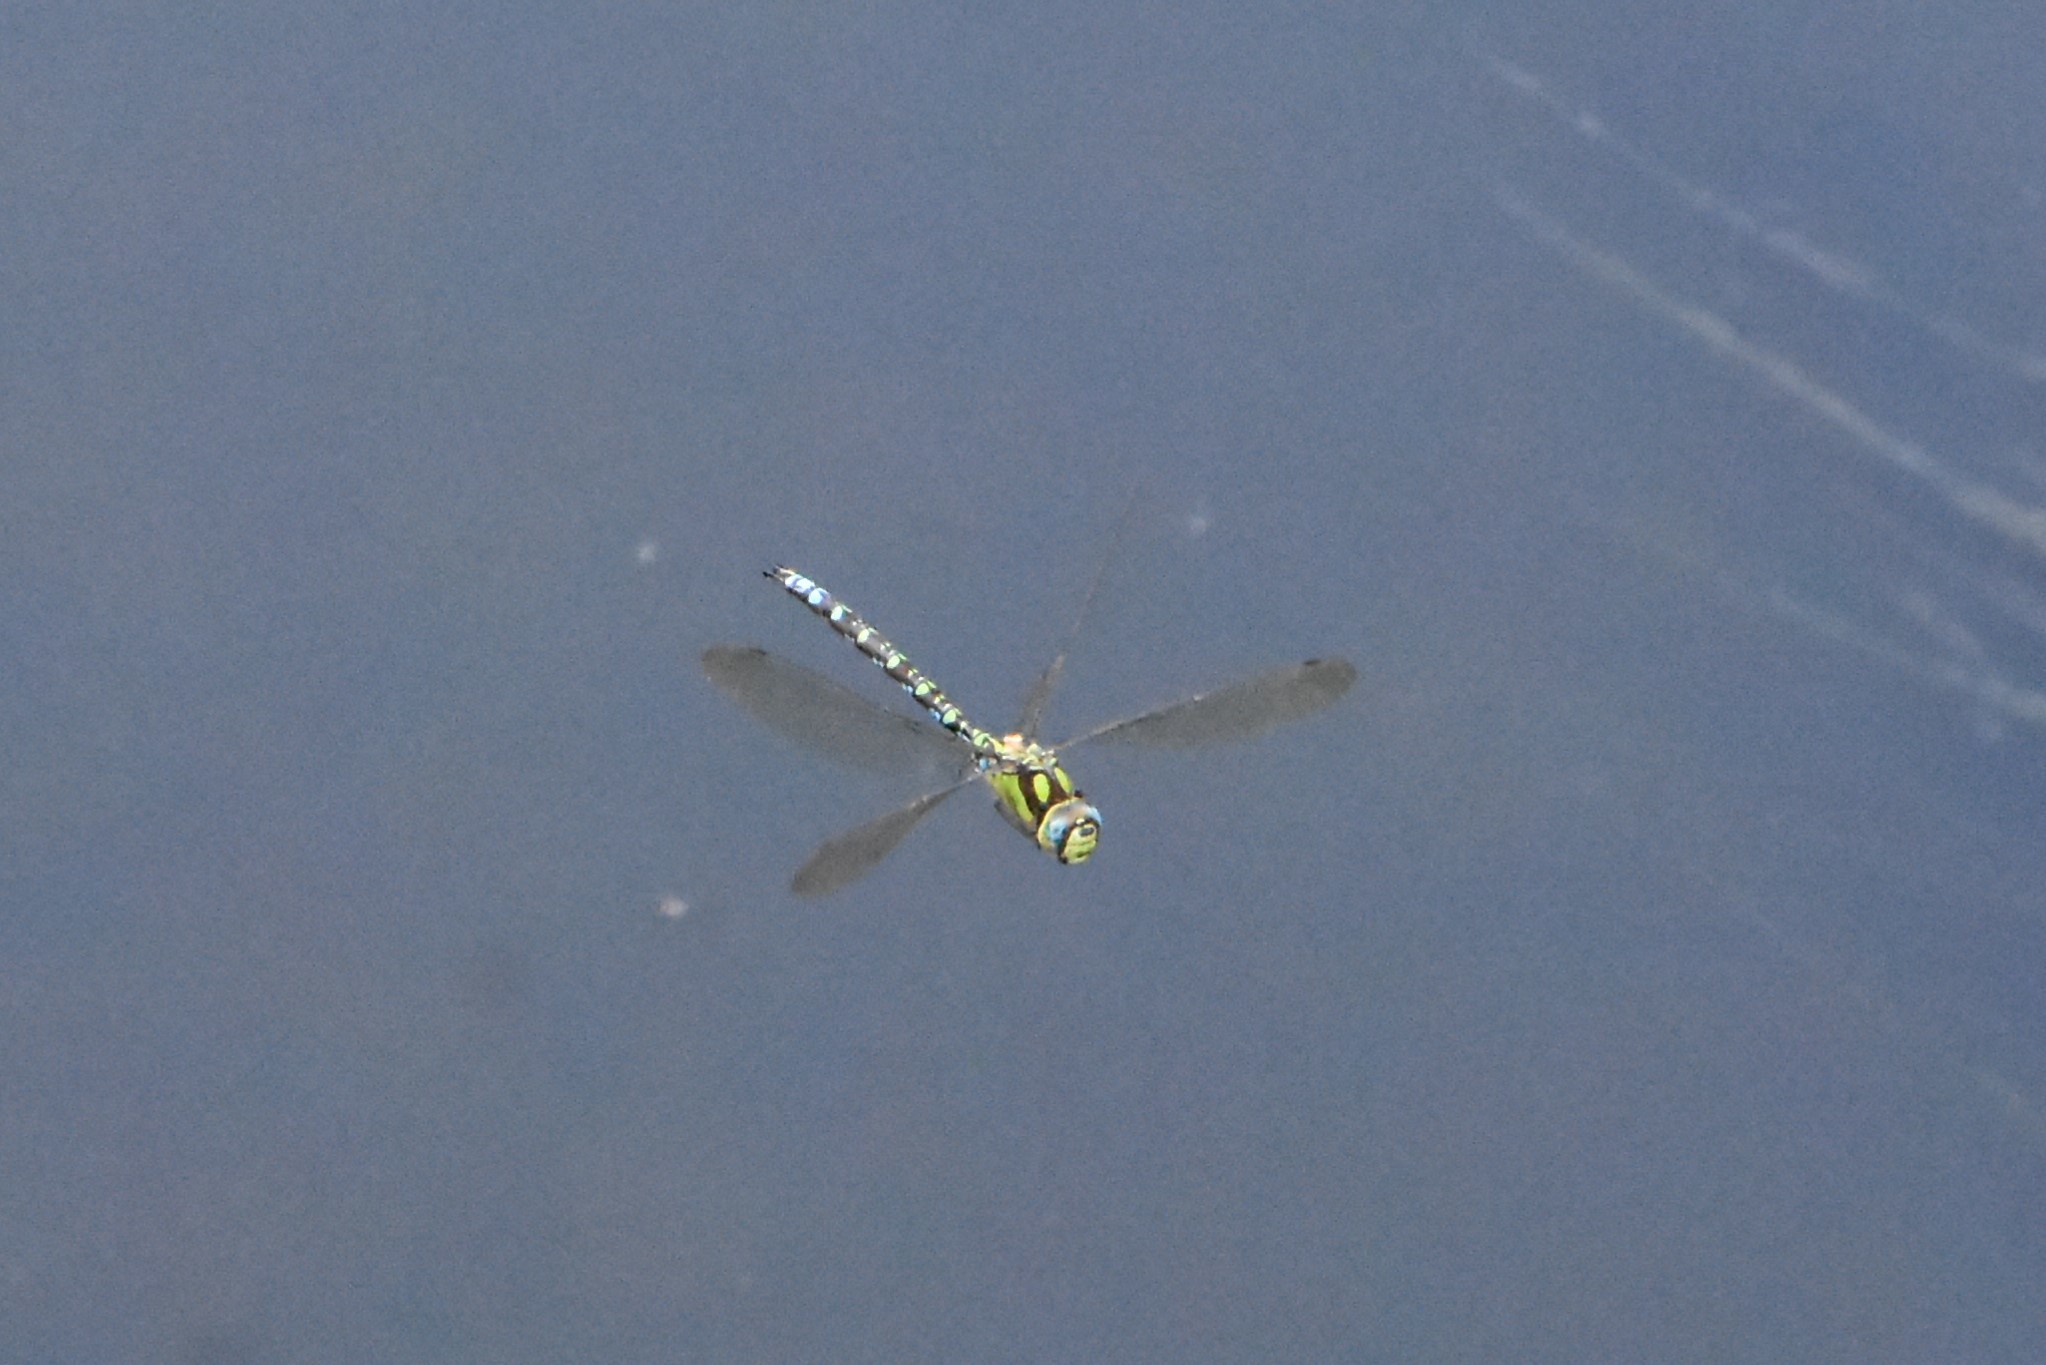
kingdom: Animalia
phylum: Arthropoda
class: Insecta
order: Odonata
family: Aeshnidae
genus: Aeshna
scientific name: Aeshna cyanea
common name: Southern hawker
